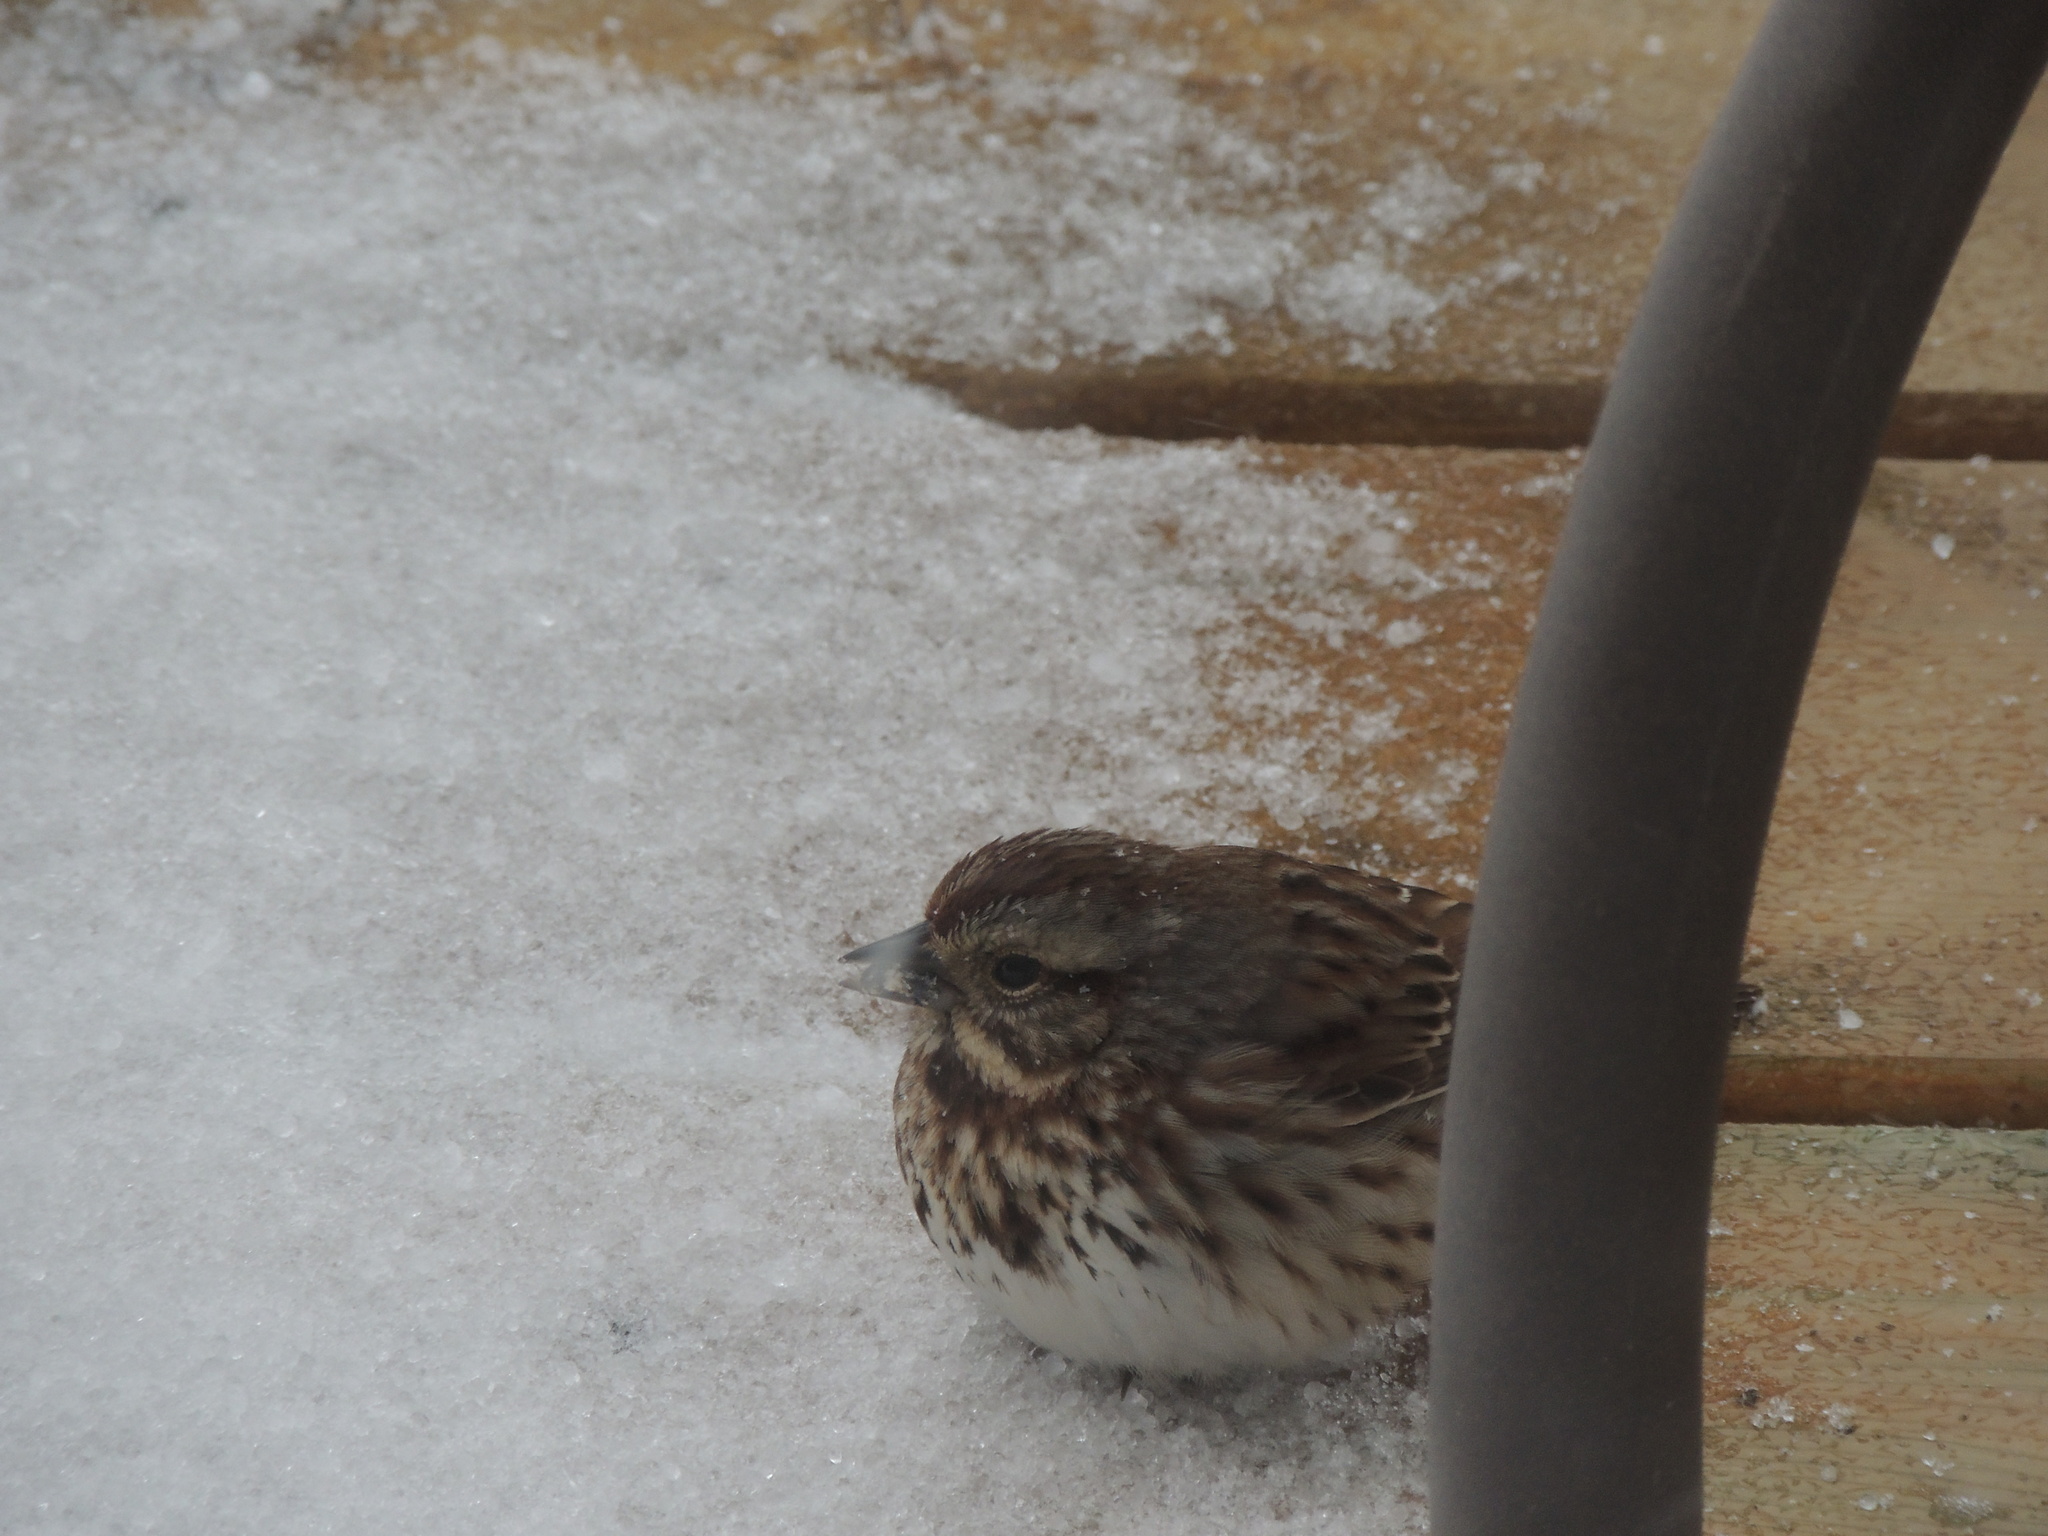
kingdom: Animalia
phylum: Chordata
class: Aves
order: Passeriformes
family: Passerellidae
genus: Melospiza
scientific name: Melospiza melodia
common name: Song sparrow
